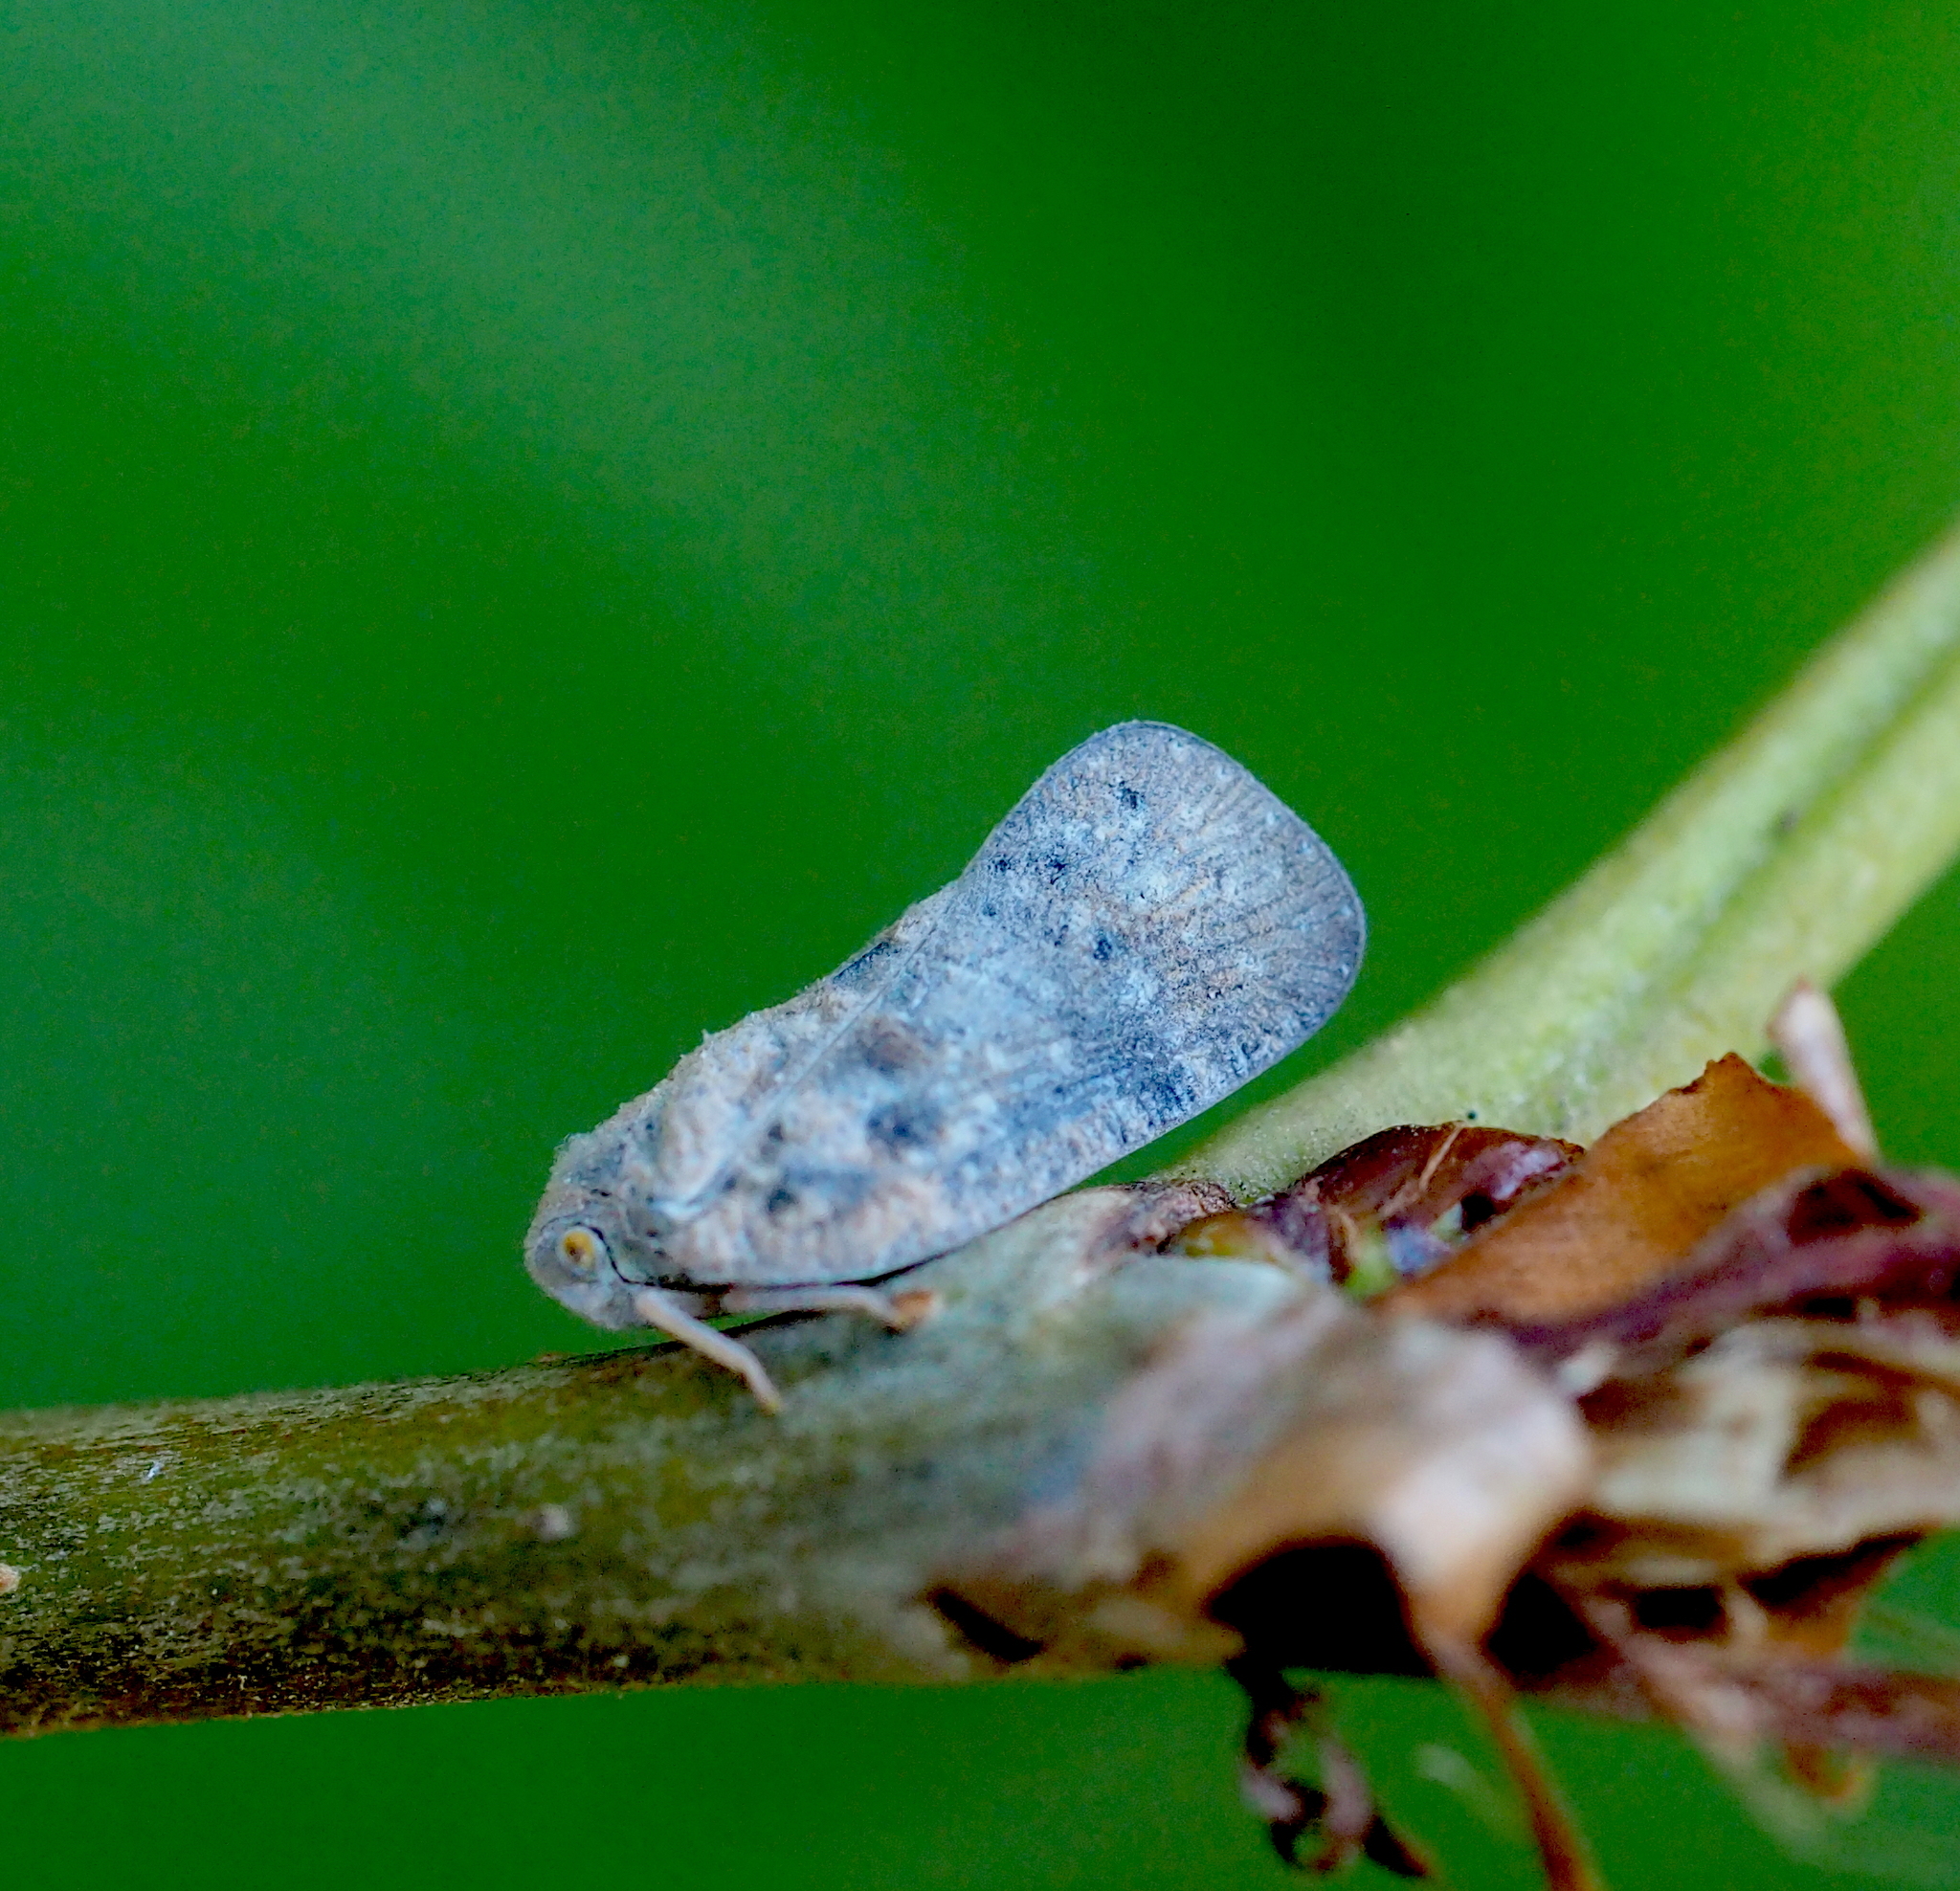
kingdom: Animalia
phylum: Arthropoda
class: Insecta
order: Hemiptera
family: Flatidae
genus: Metcalfa
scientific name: Metcalfa pruinosa
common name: Citrus flatid planthopper
